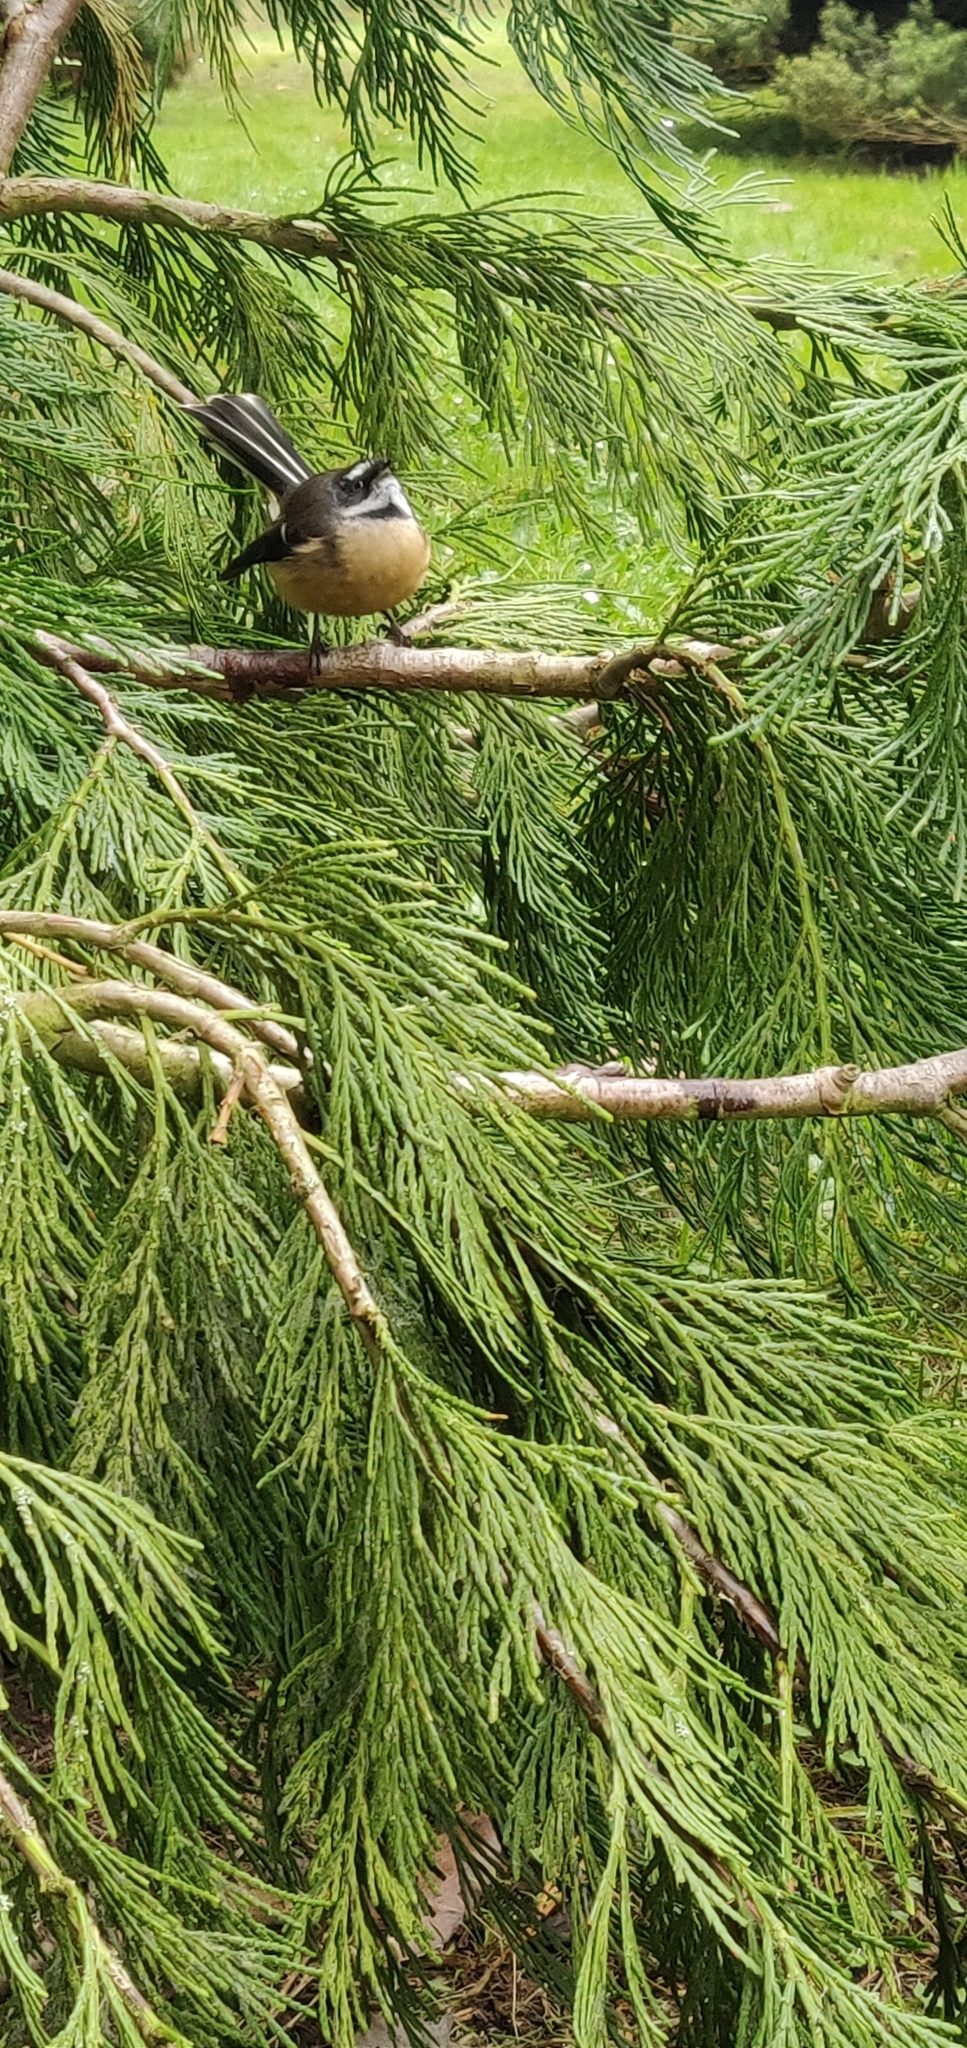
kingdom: Animalia
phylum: Chordata
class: Aves
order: Passeriformes
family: Rhipiduridae
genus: Rhipidura
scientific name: Rhipidura fuliginosa
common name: New zealand fantail
